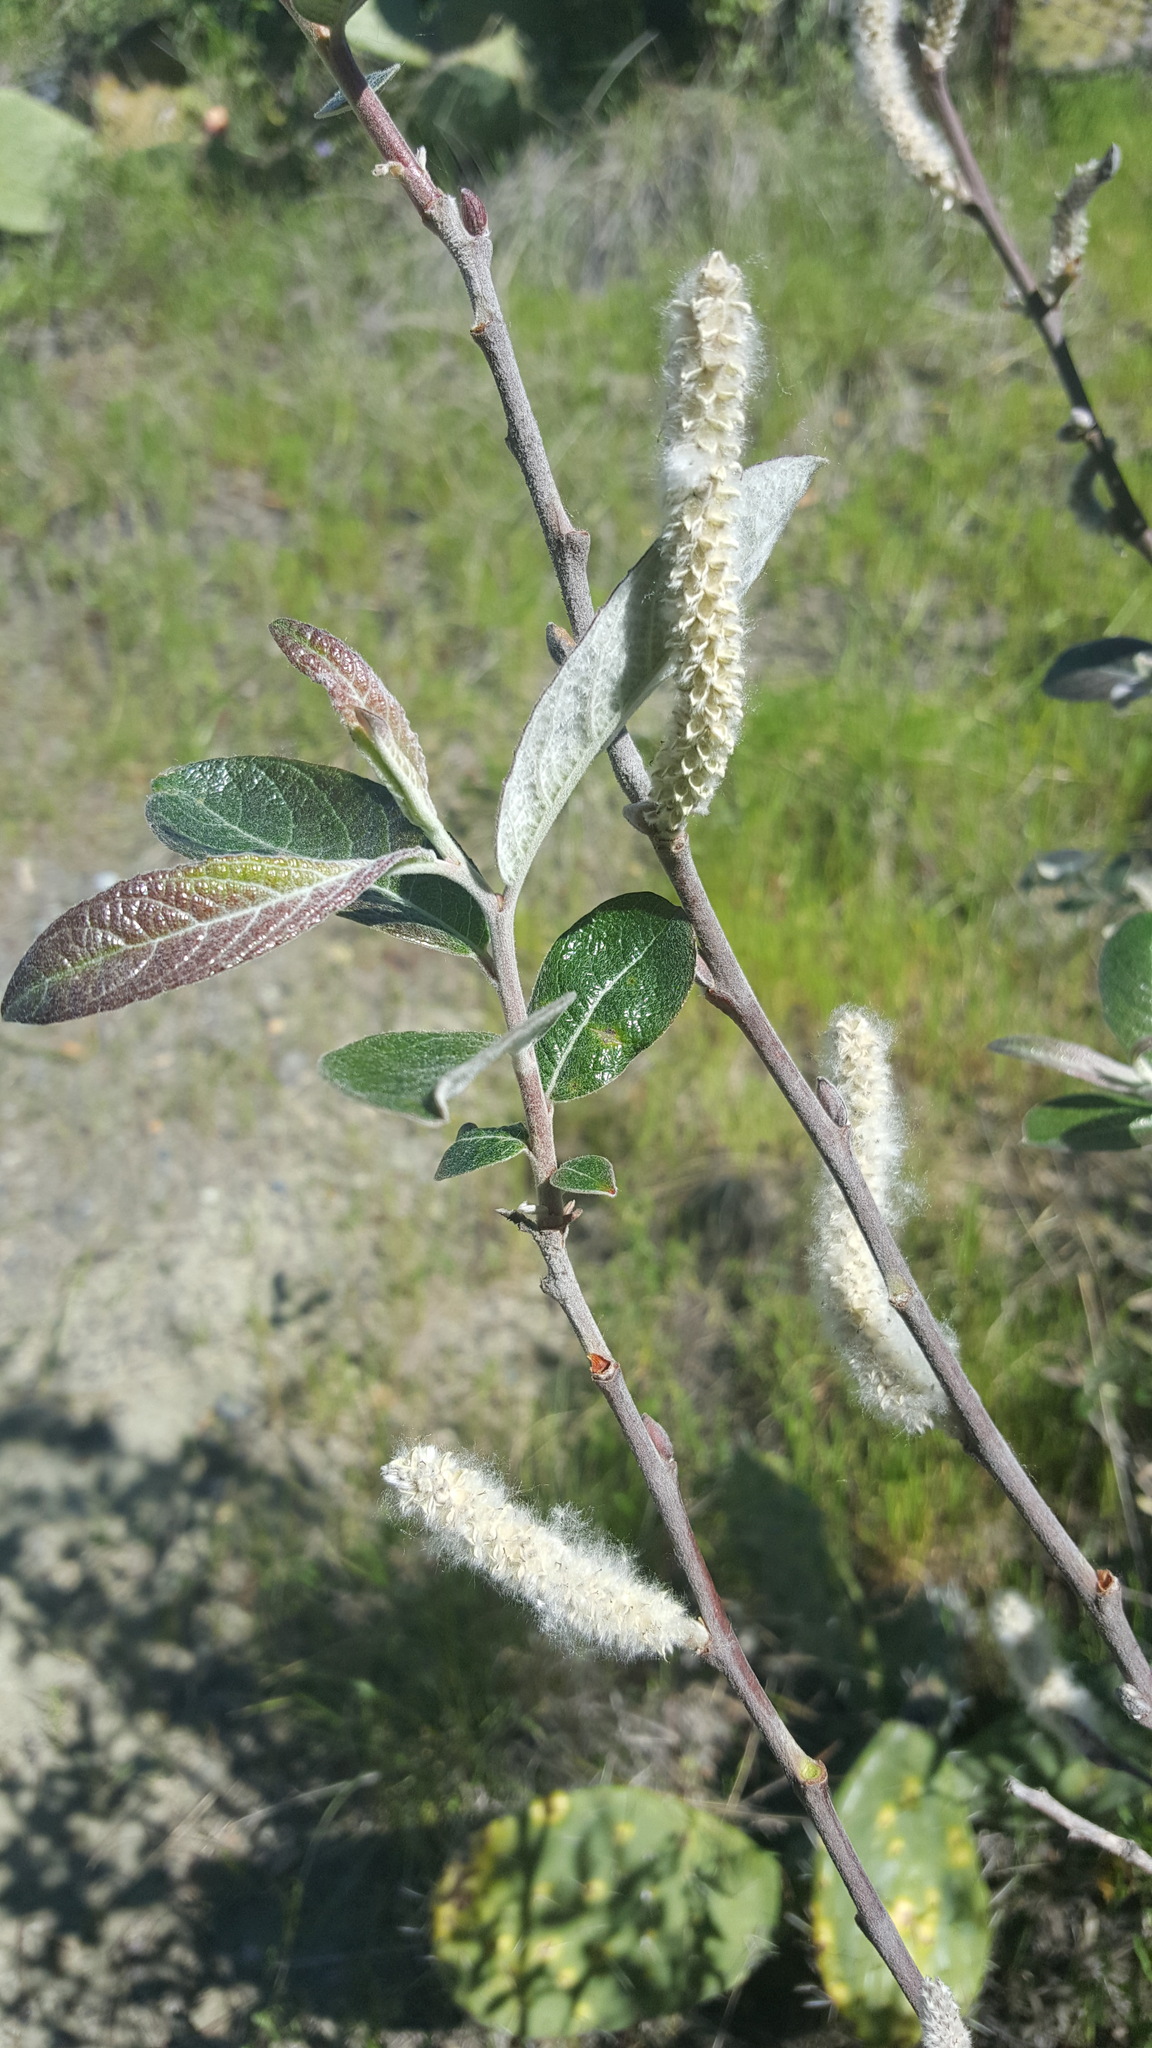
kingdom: Plantae
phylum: Tracheophyta
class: Magnoliopsida
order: Malpighiales
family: Salicaceae
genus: Salix
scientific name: Salix breweri
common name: Brewer’s willow
